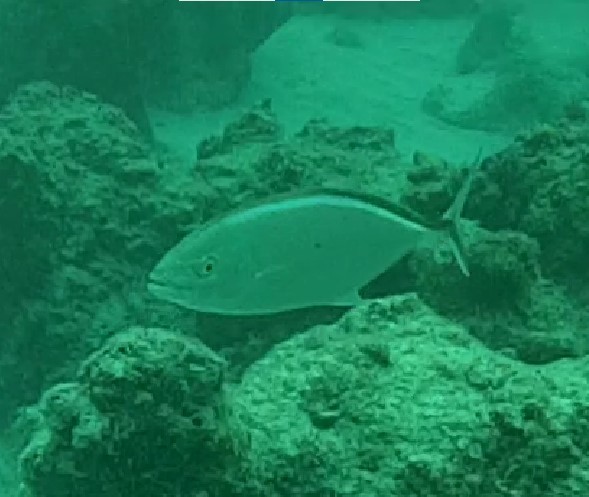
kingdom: Animalia
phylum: Chordata
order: Perciformes
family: Carangidae
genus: Caranx
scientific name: Caranx ruber
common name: Bar jack
